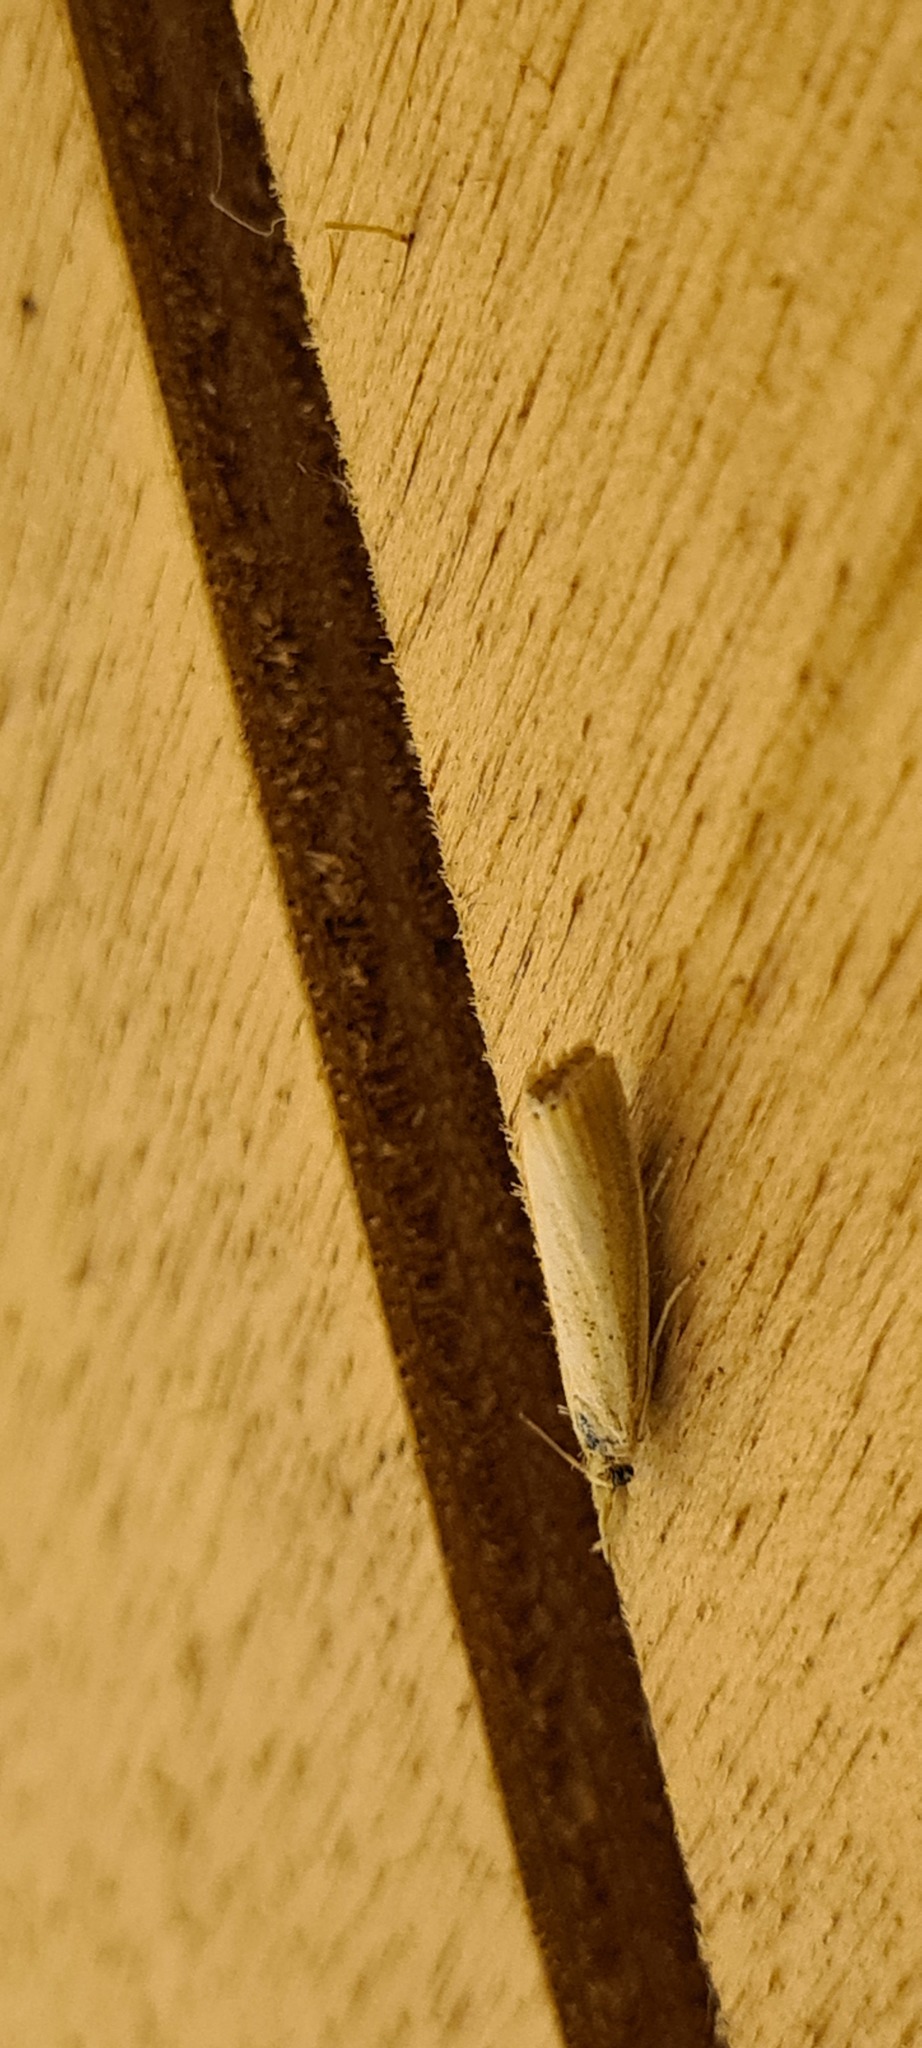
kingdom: Animalia
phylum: Arthropoda
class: Insecta
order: Lepidoptera
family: Crambidae
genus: Agriphila
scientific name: Agriphila straminella
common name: Straw grass-veneer
